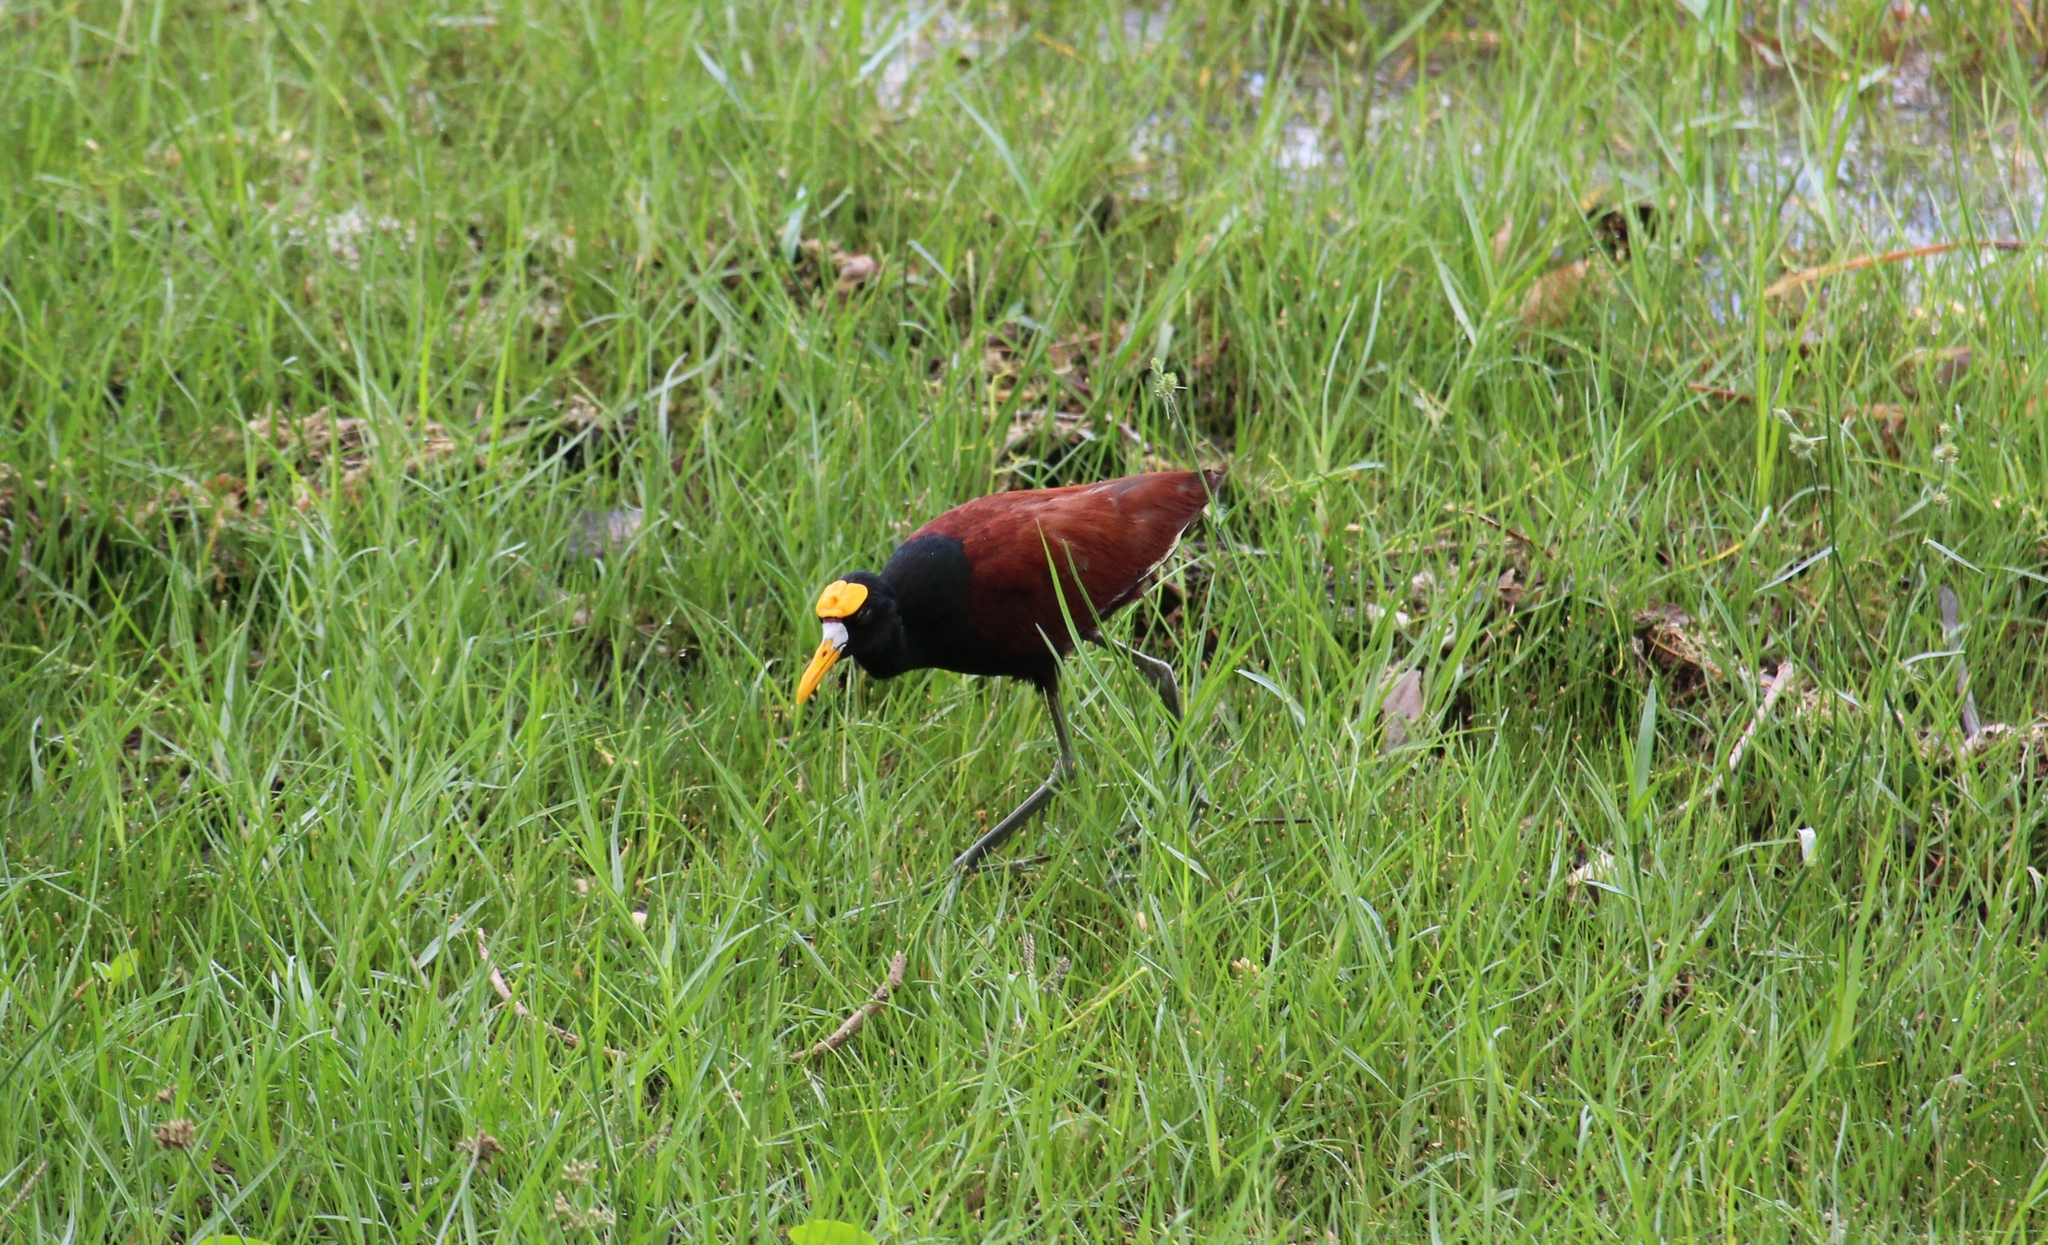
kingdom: Animalia
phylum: Chordata
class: Aves
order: Charadriiformes
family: Jacanidae
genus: Jacana
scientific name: Jacana spinosa
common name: Northern jacana
